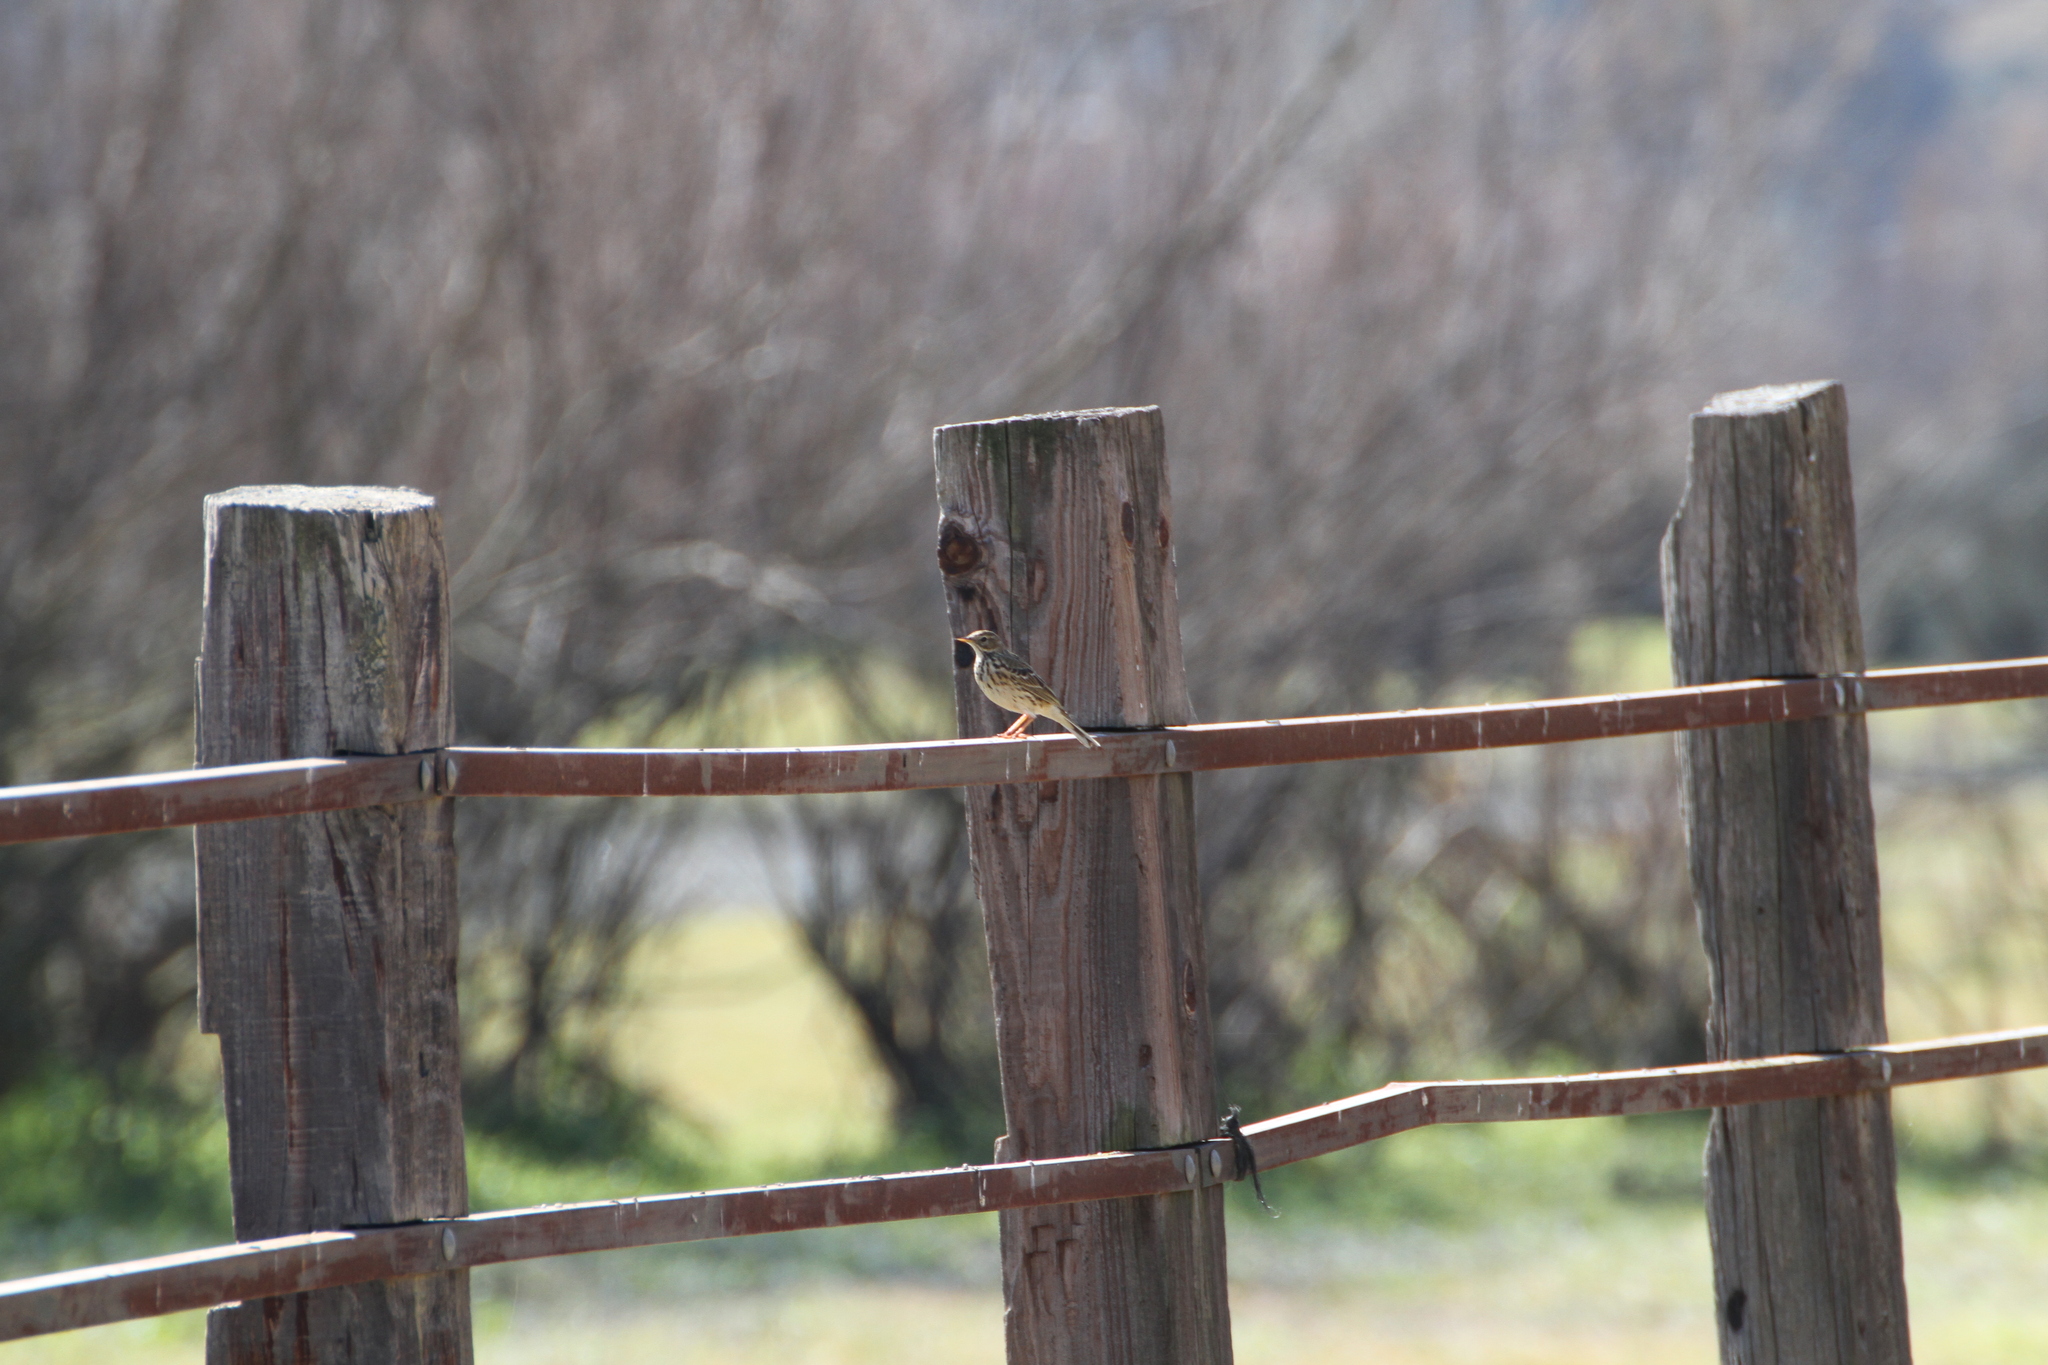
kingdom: Animalia
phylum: Chordata
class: Aves
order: Passeriformes
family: Motacillidae
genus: Anthus
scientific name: Anthus pratensis
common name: Meadow pipit
